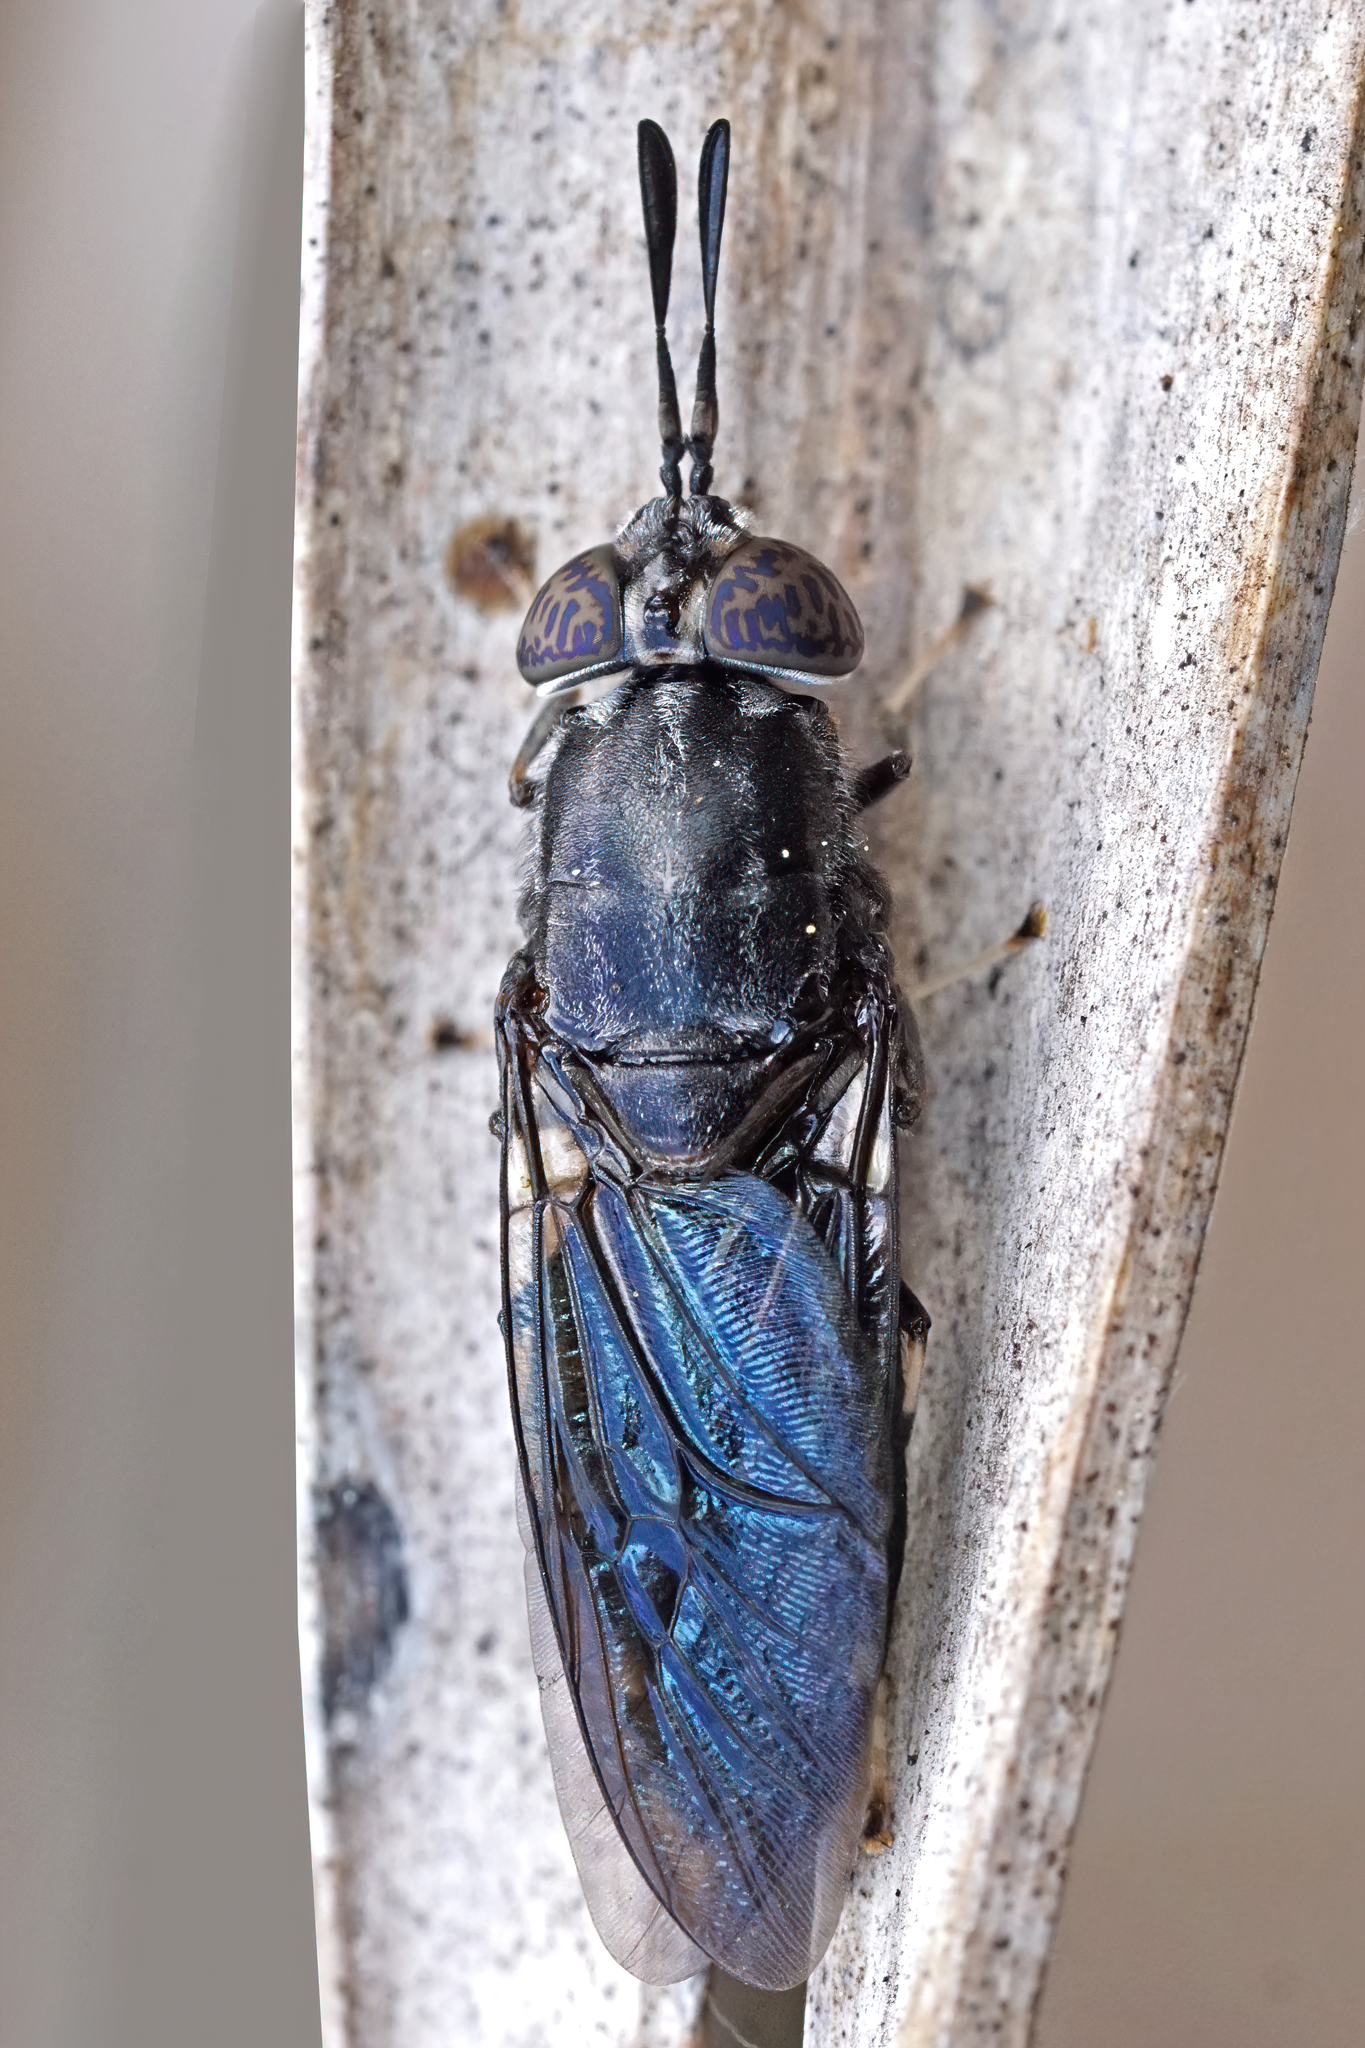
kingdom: Animalia
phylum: Arthropoda
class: Insecta
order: Diptera
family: Stratiomyidae
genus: Hermetia
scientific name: Hermetia sexmaculata
